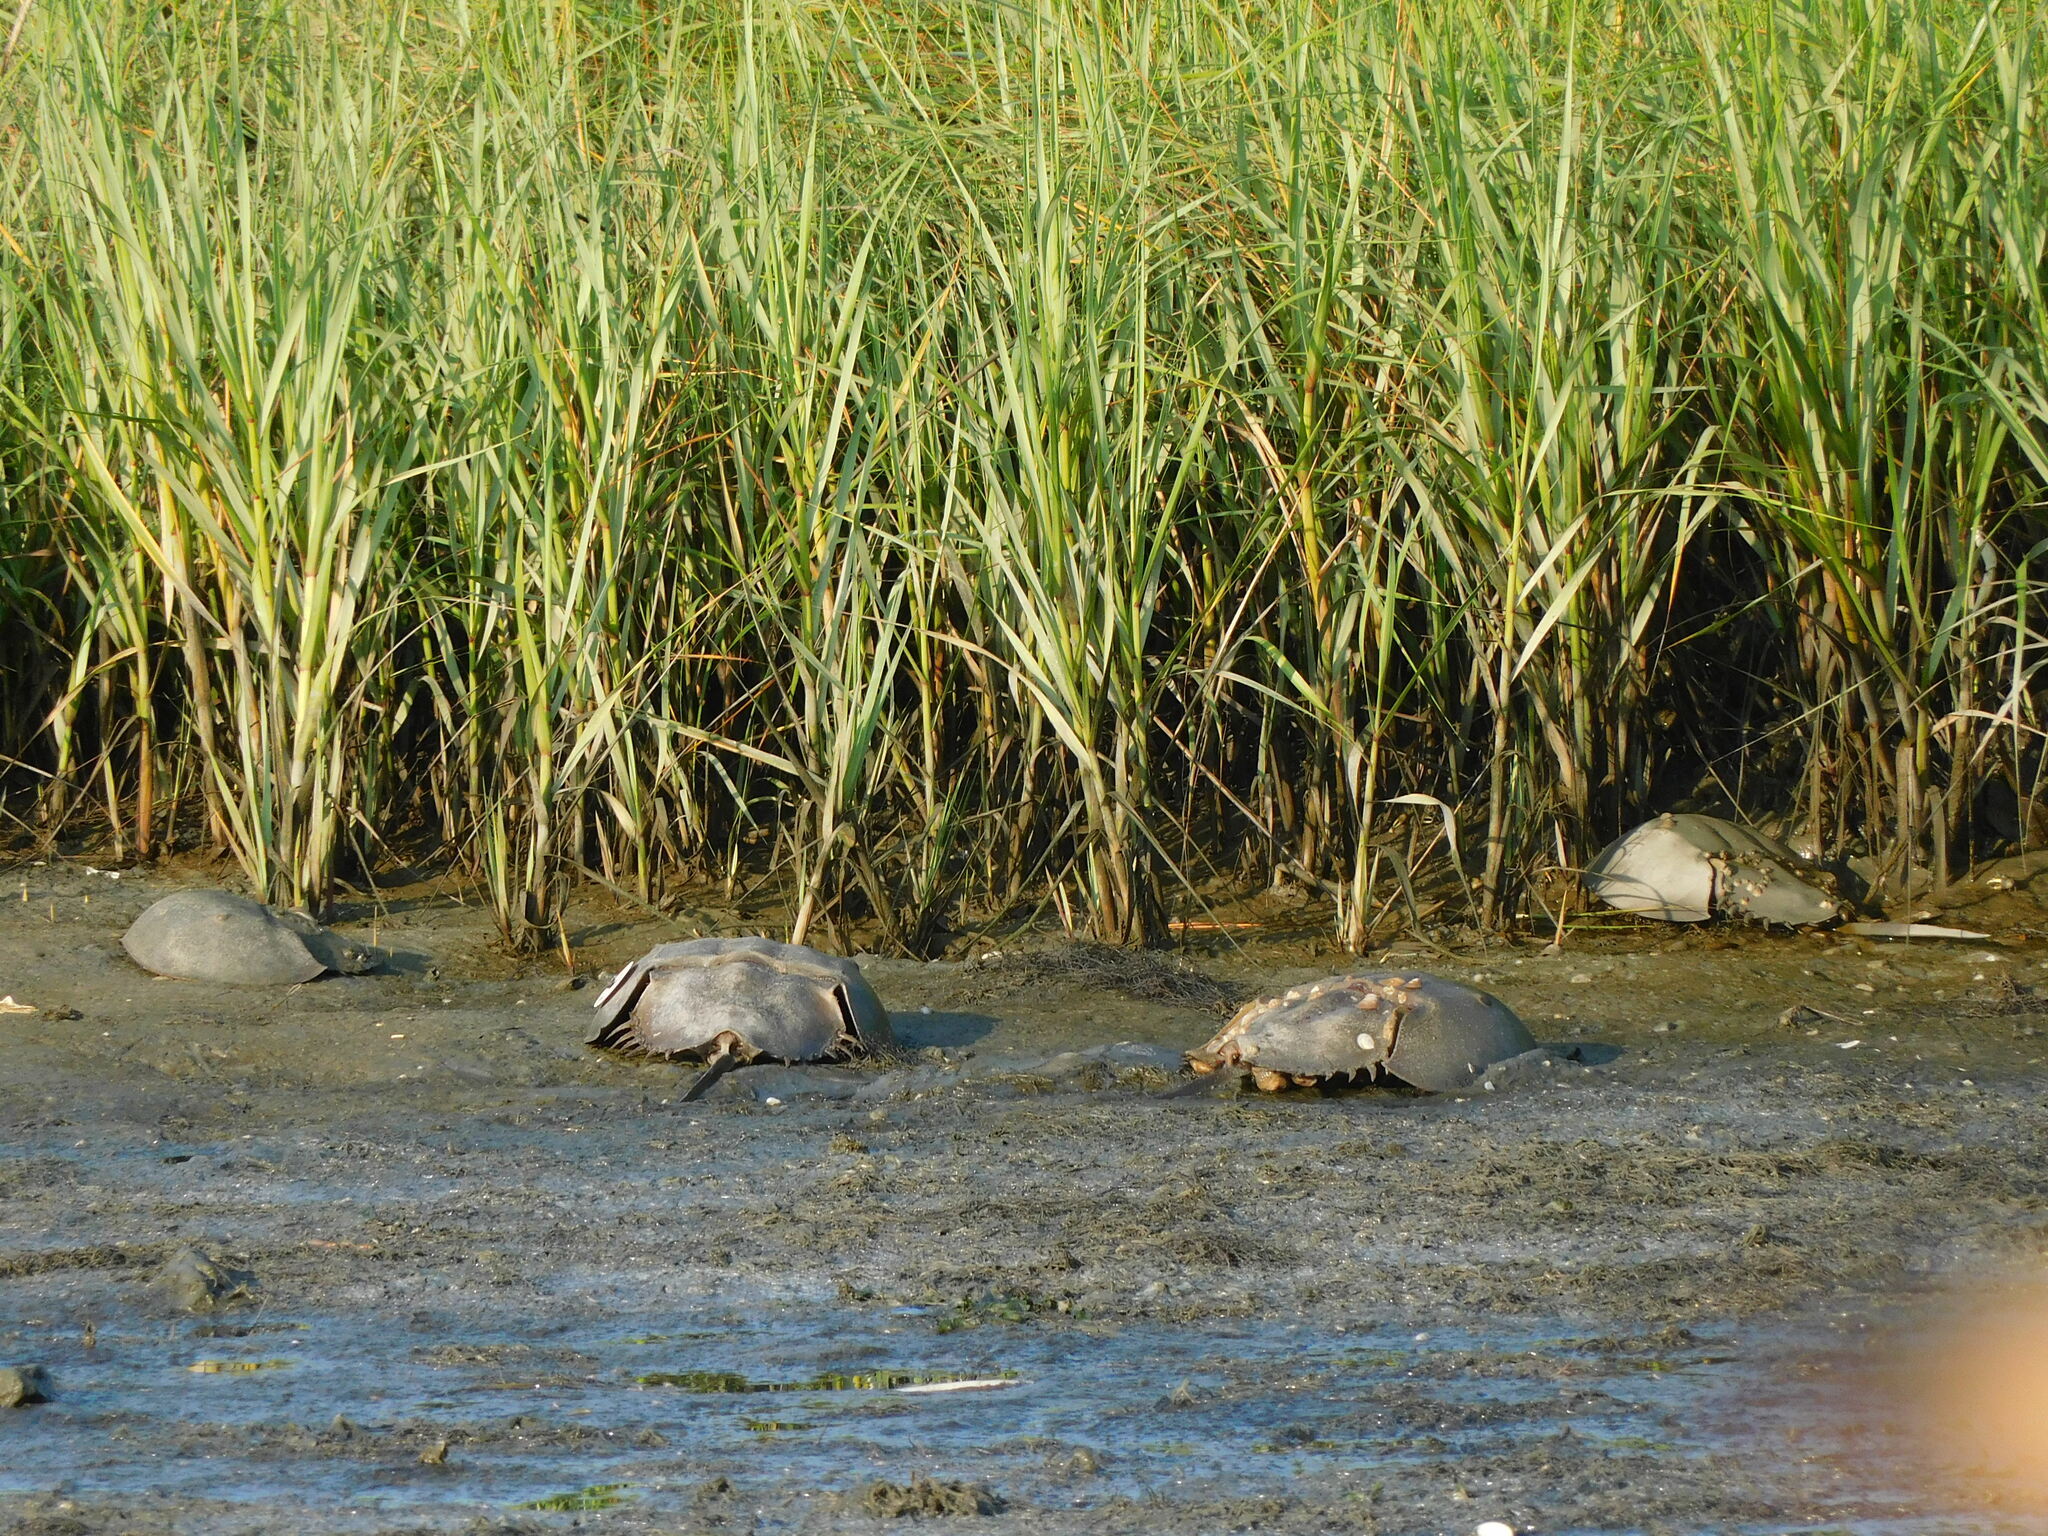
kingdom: Animalia
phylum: Arthropoda
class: Merostomata
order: Xiphosurida
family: Limulidae
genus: Limulus
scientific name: Limulus polyphemus
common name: Horseshoe crab
